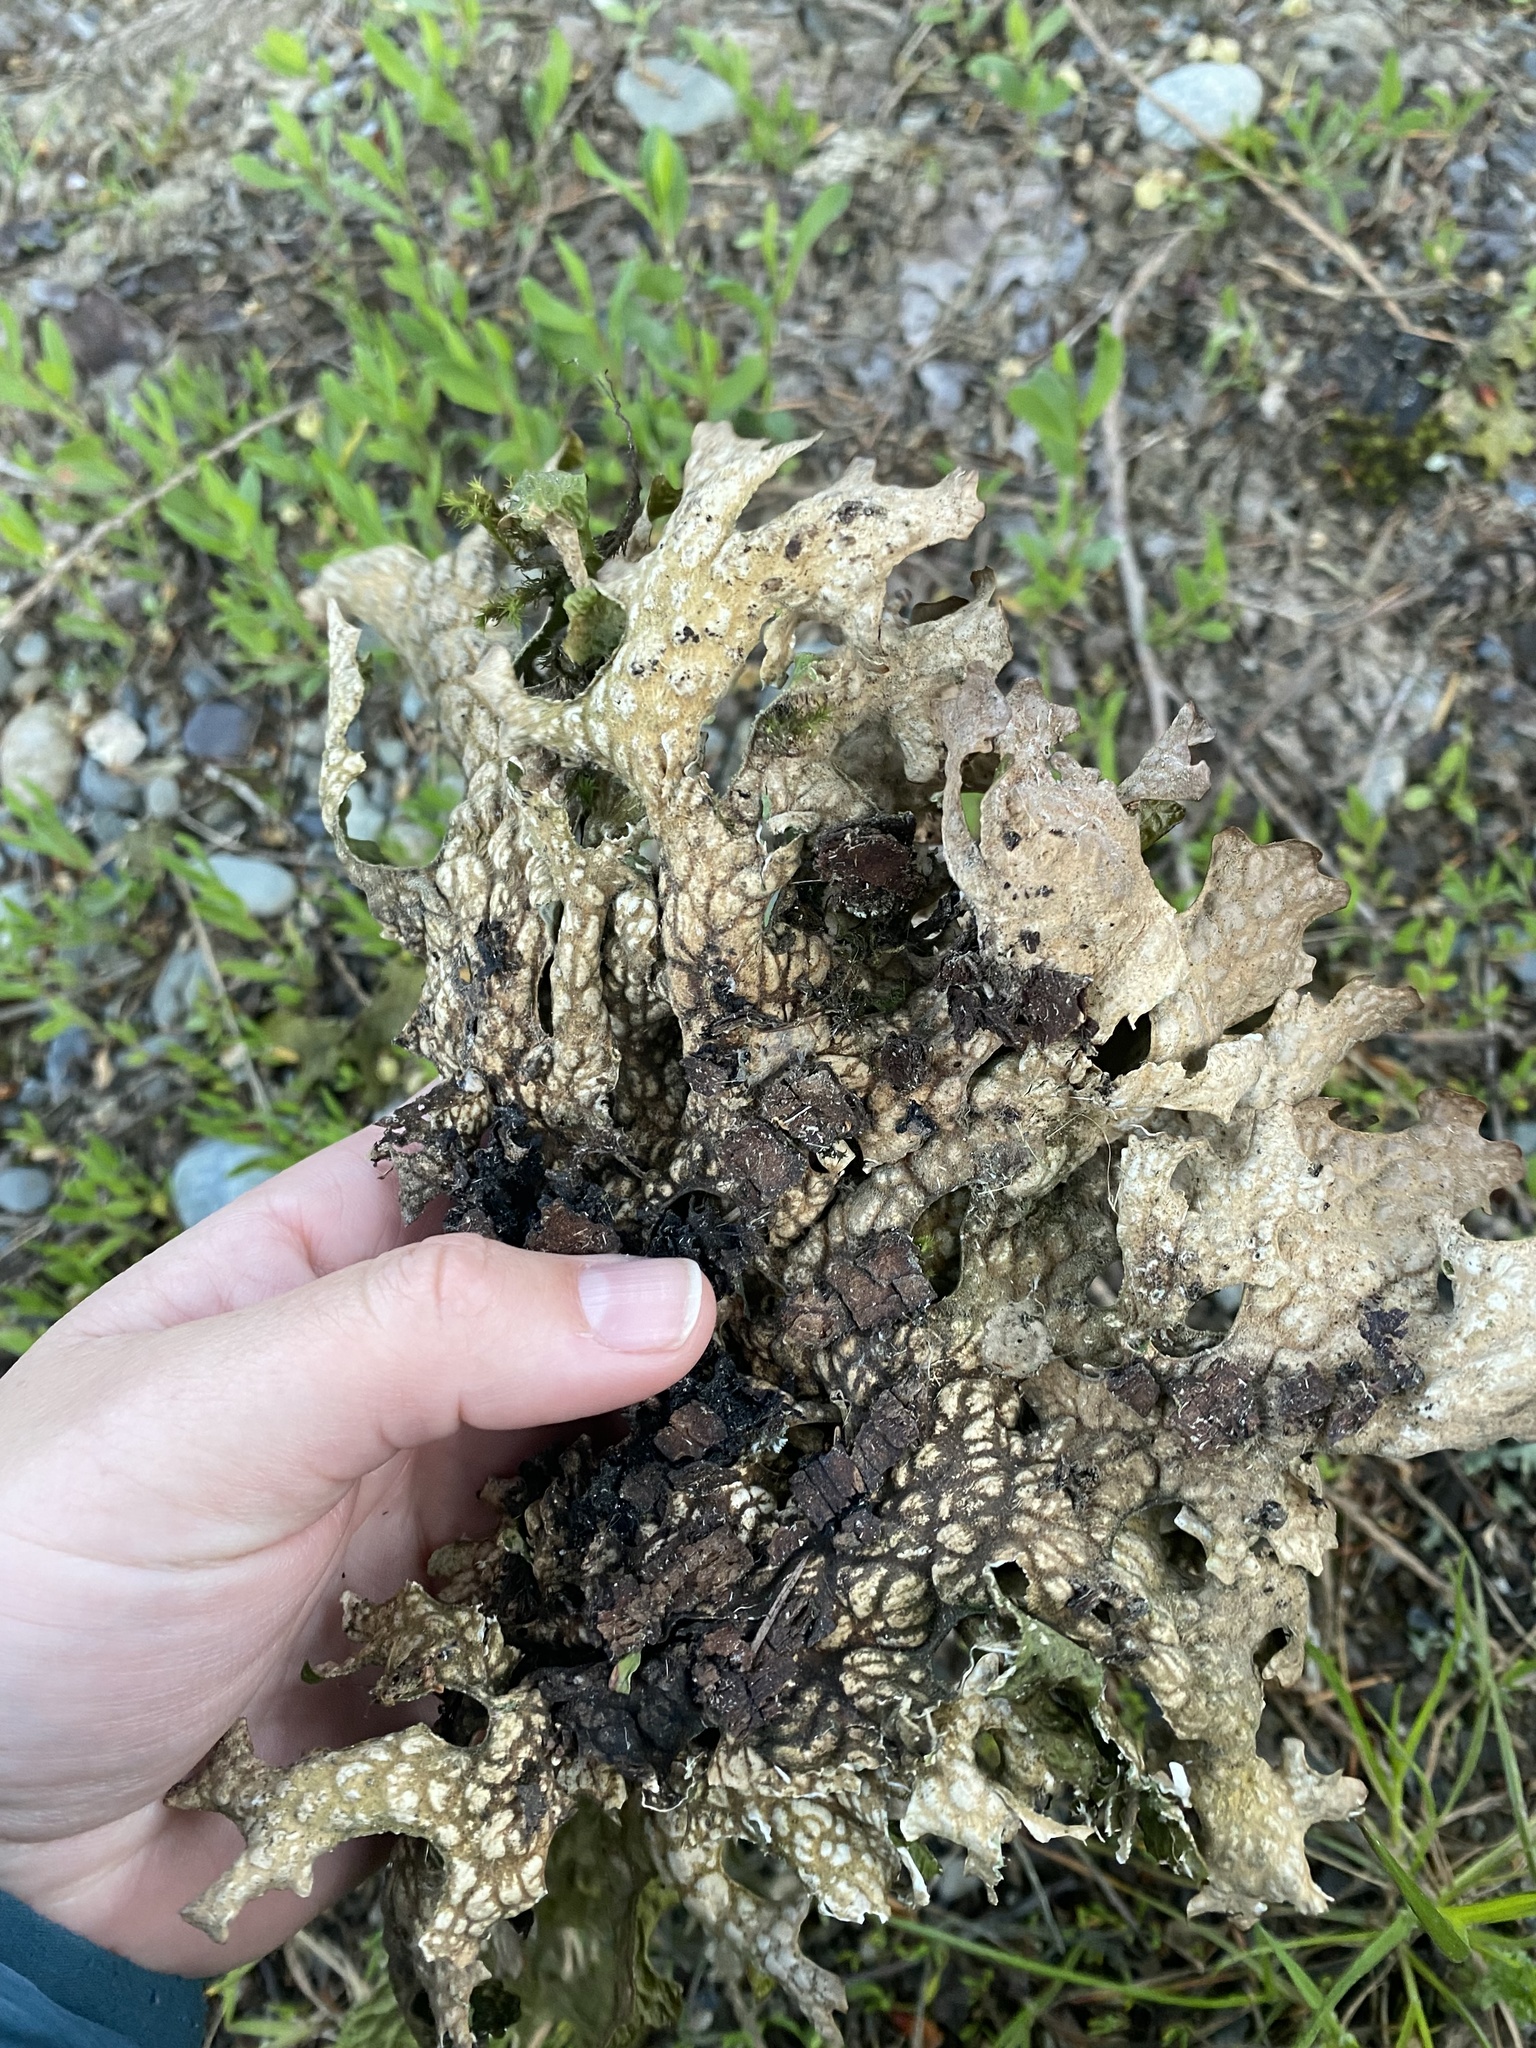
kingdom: Fungi
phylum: Ascomycota
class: Lecanoromycetes
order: Peltigerales
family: Lobariaceae
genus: Lobaria
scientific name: Lobaria pulmonaria
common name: Lungwort
